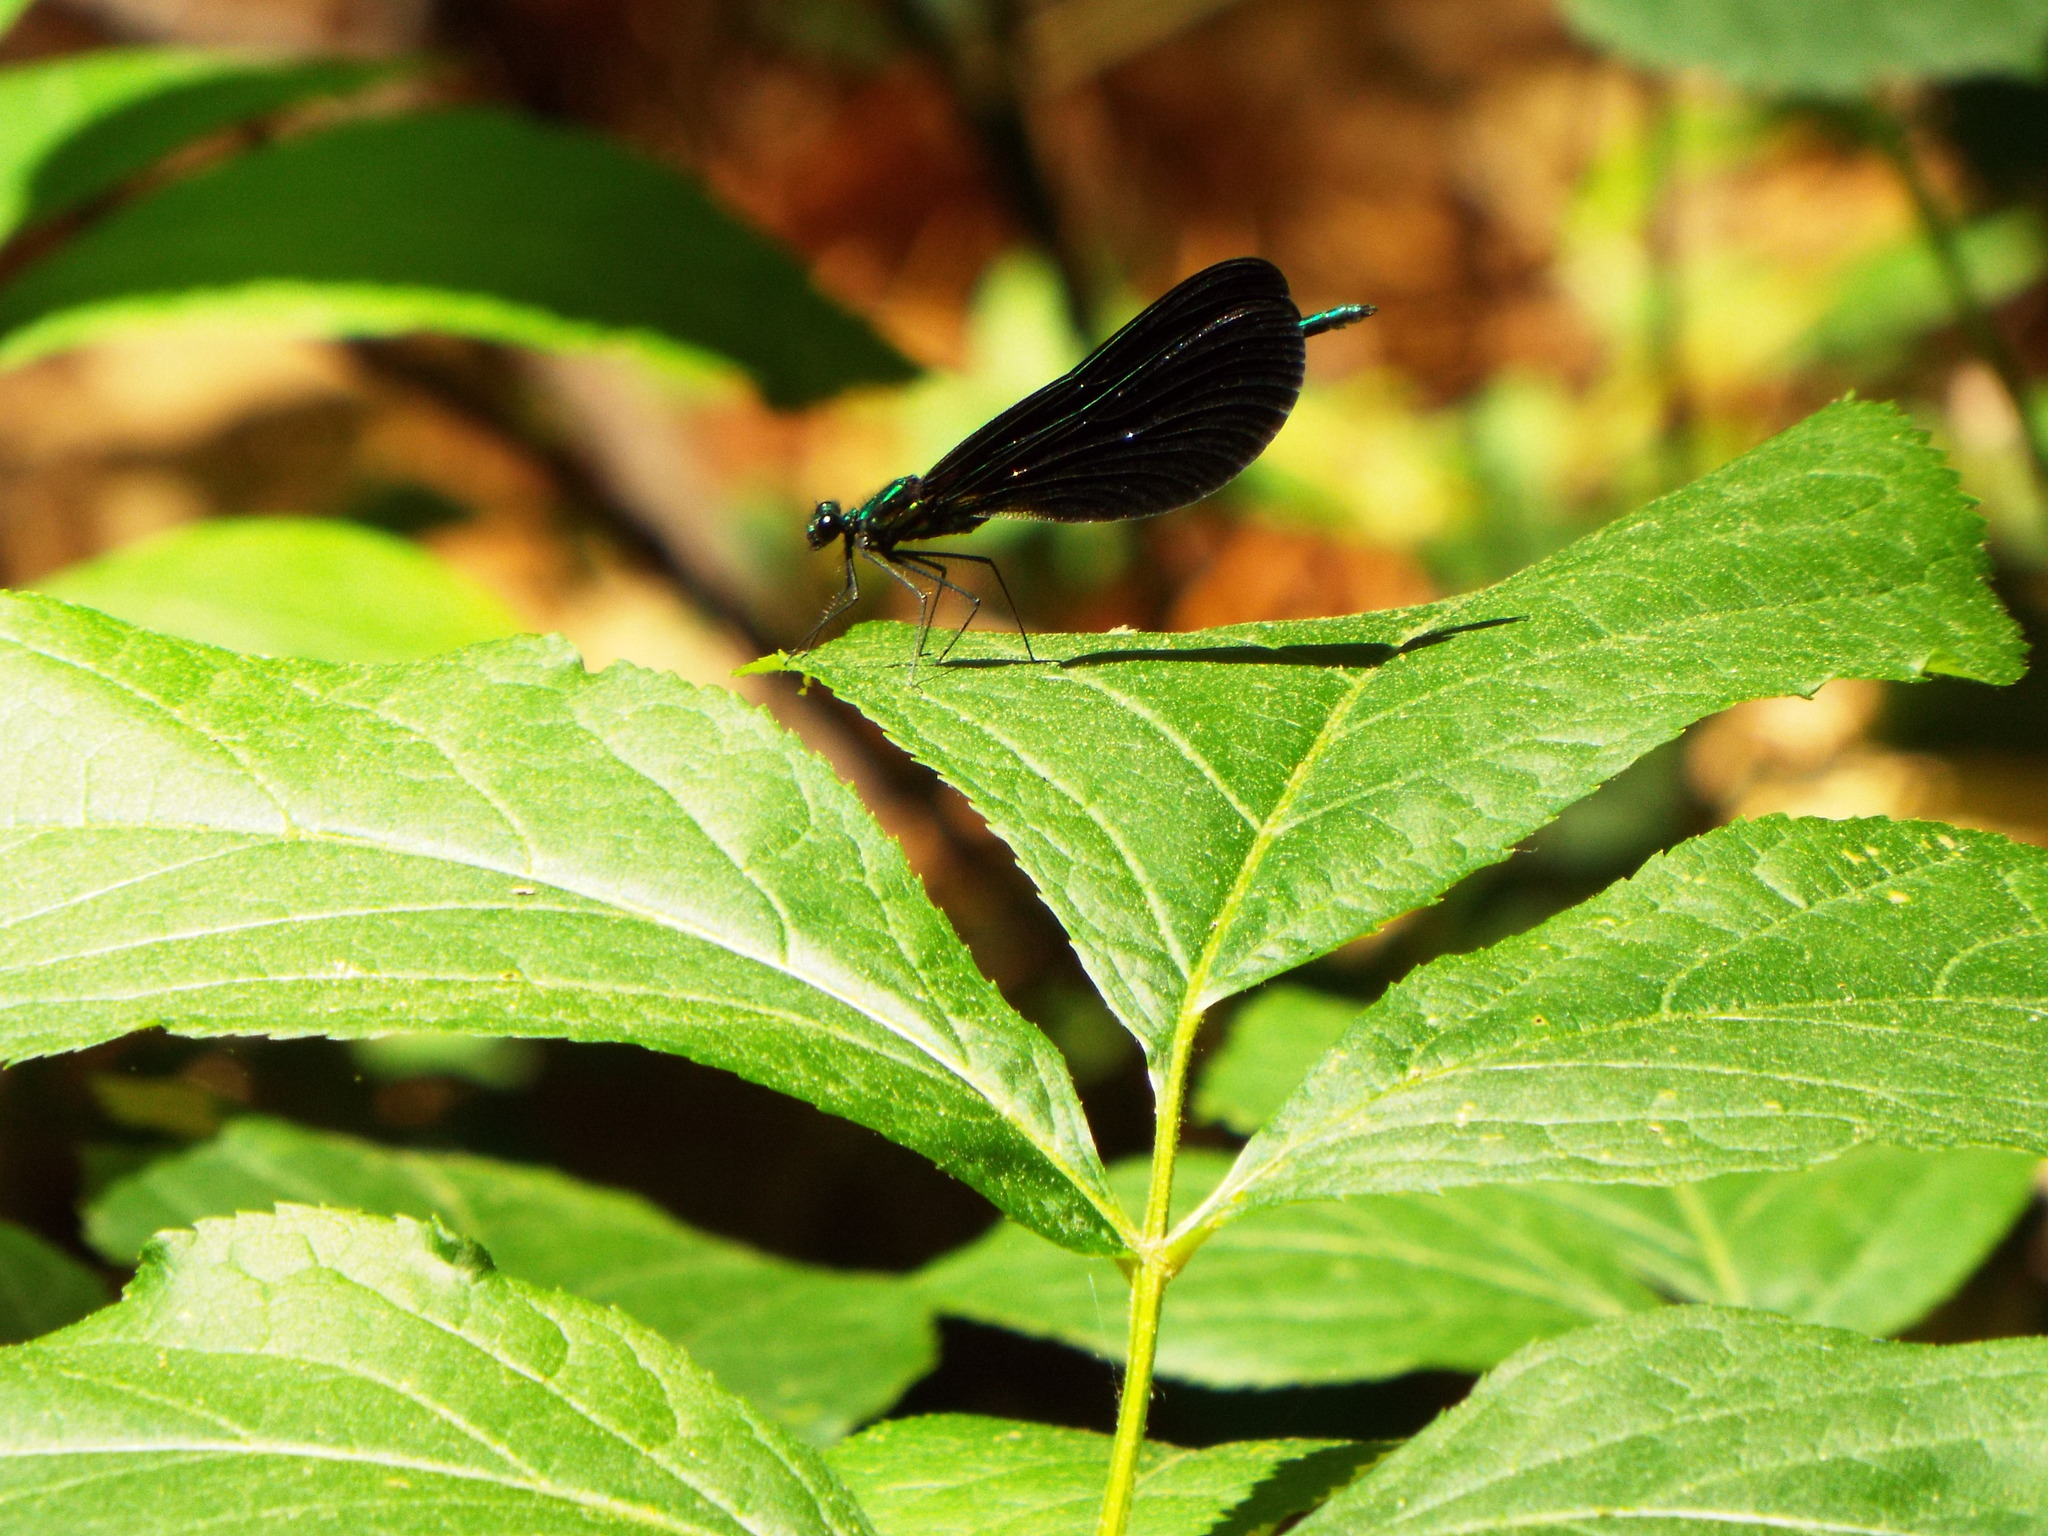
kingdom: Animalia
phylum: Arthropoda
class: Insecta
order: Odonata
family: Calopterygidae
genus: Calopteryx
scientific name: Calopteryx maculata
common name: Ebony jewelwing
